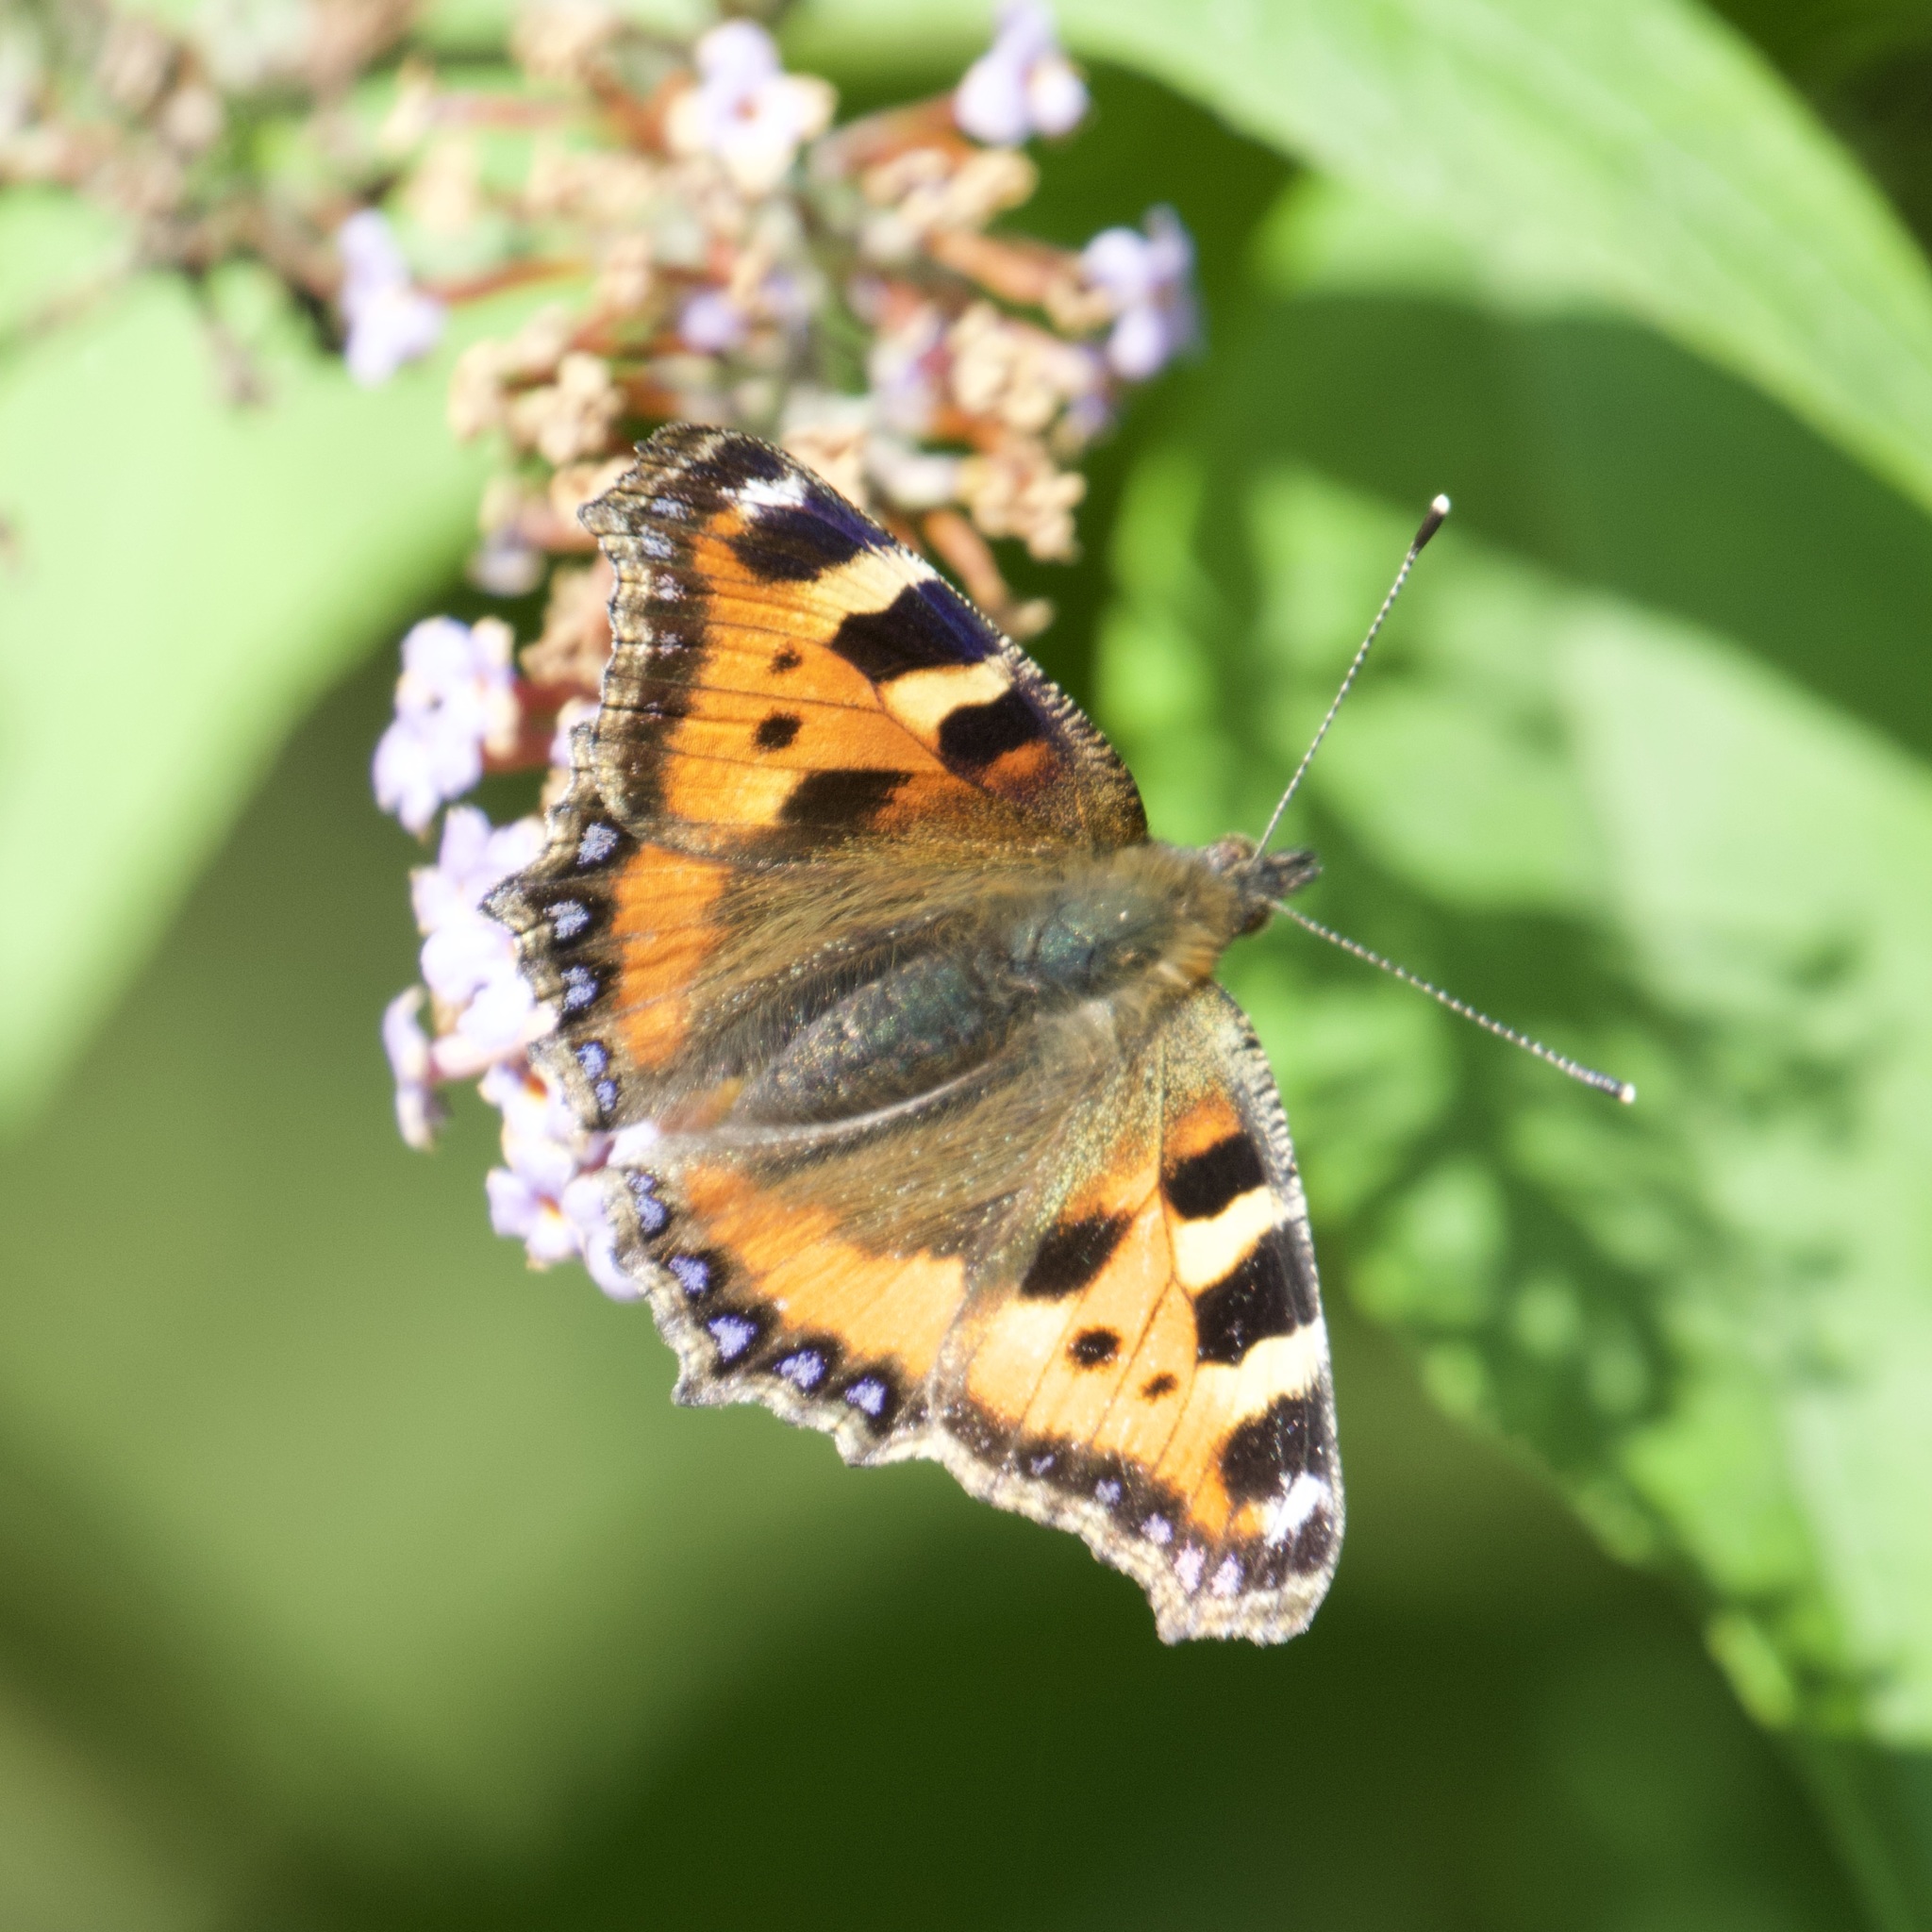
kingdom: Animalia
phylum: Arthropoda
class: Insecta
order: Lepidoptera
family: Nymphalidae
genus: Aglais
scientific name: Aglais urticae
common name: Small tortoiseshell
